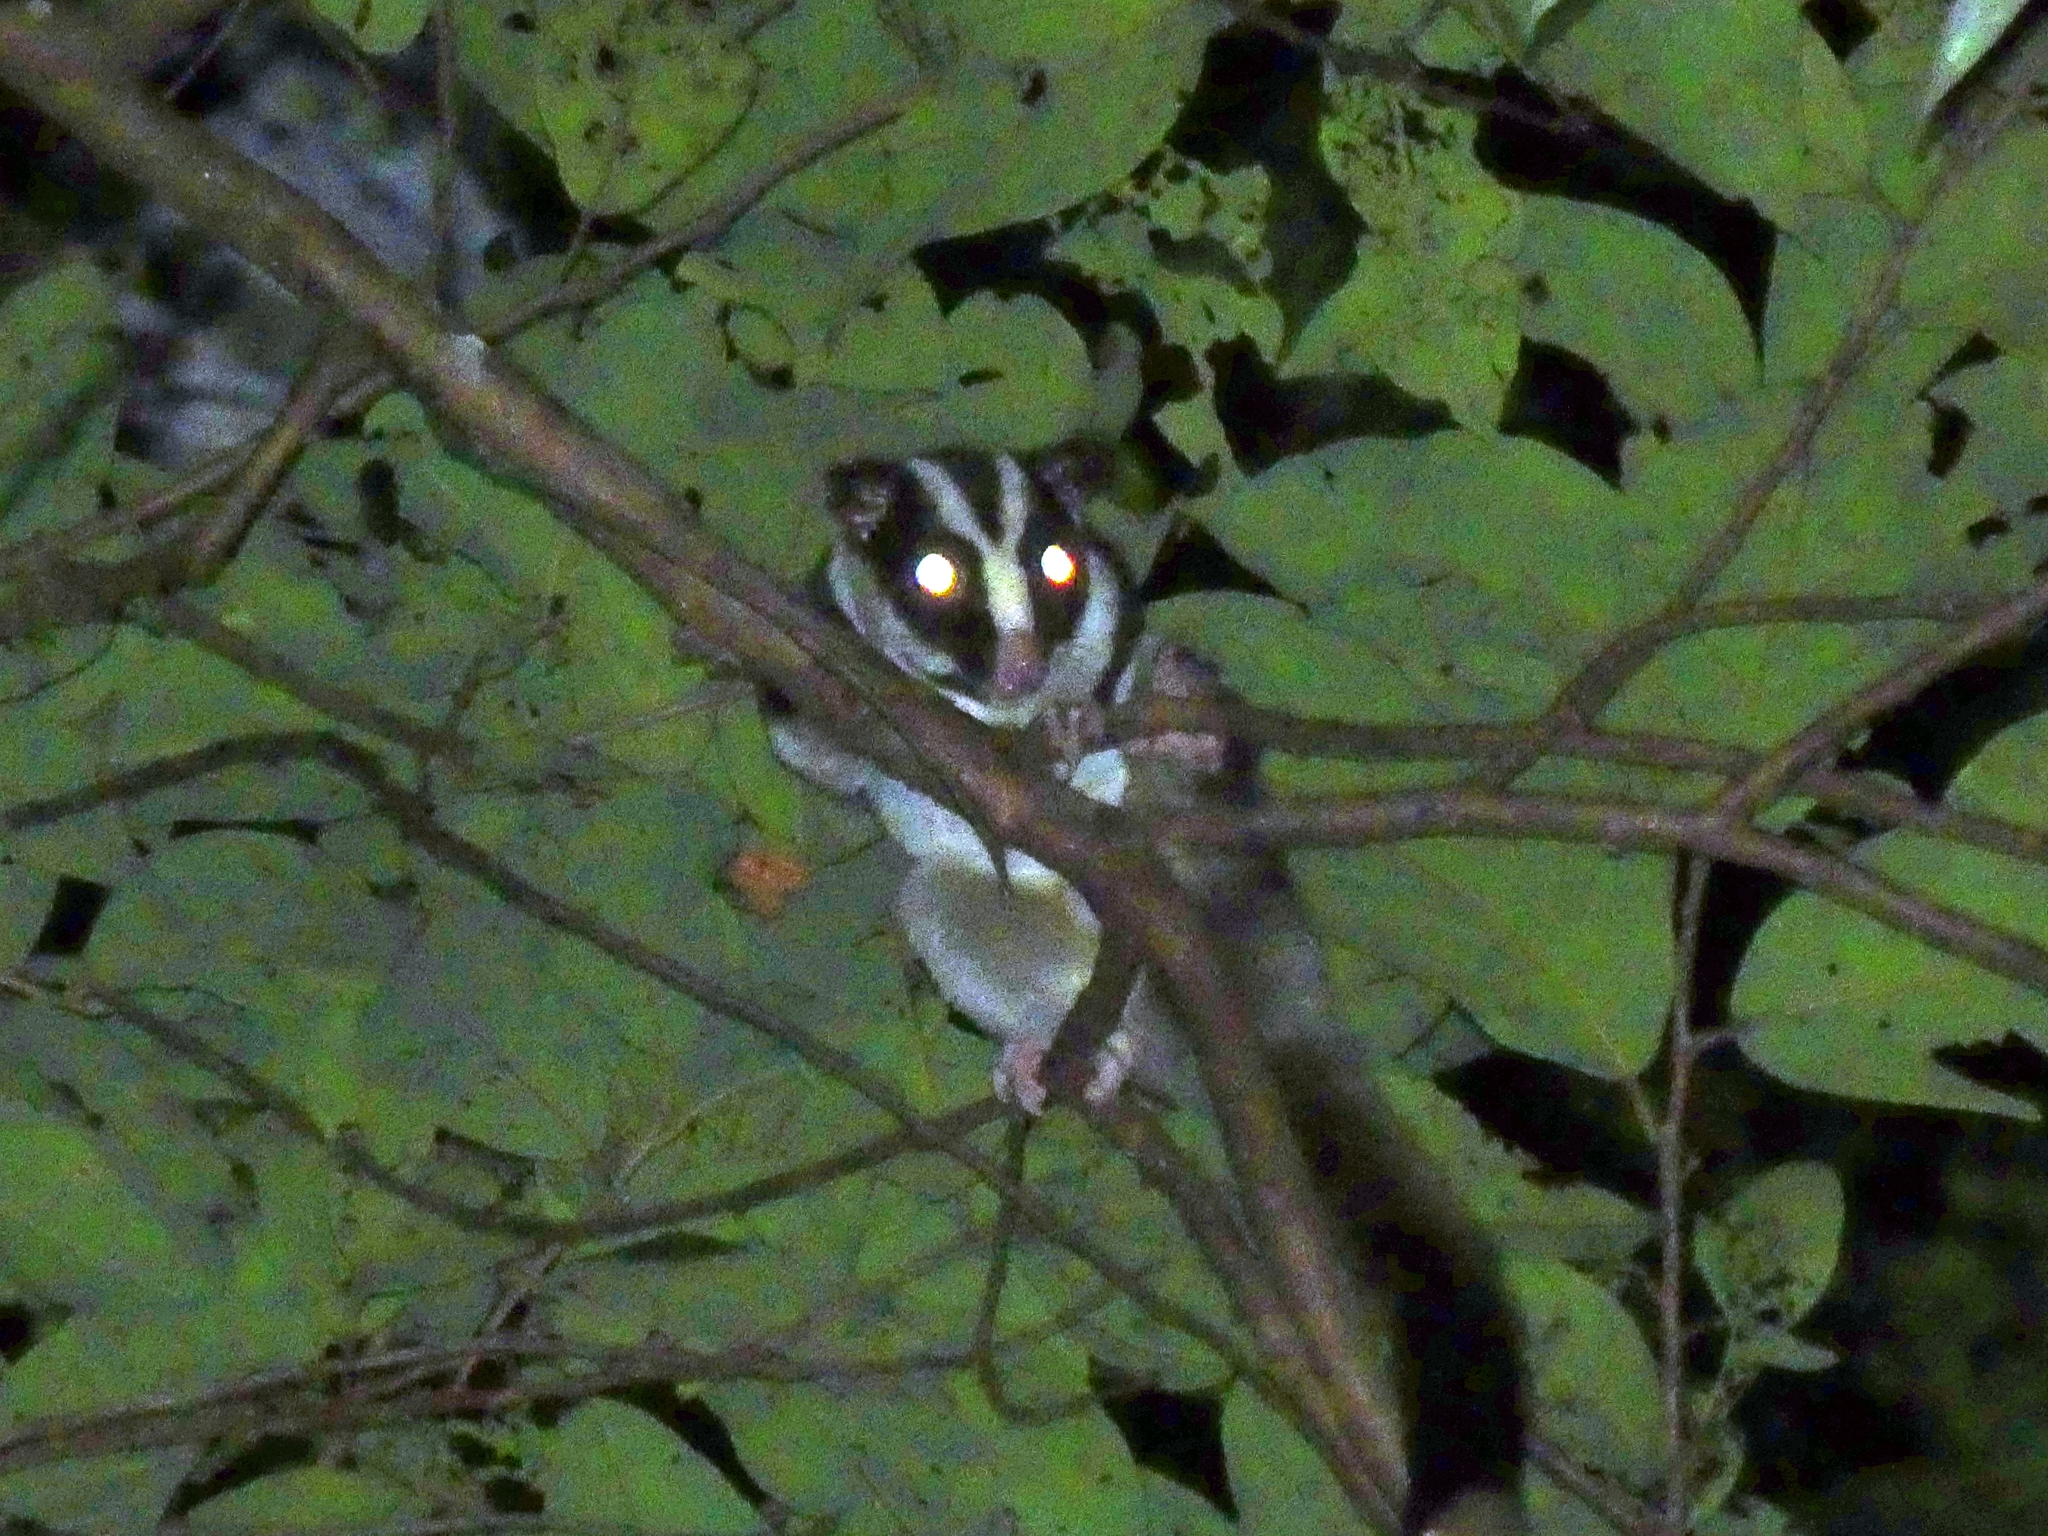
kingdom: Animalia
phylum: Chordata
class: Mammalia
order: Diprotodontia
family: Petauridae
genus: Dactylopsila
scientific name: Dactylopsila trivirgata
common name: Striped possum
